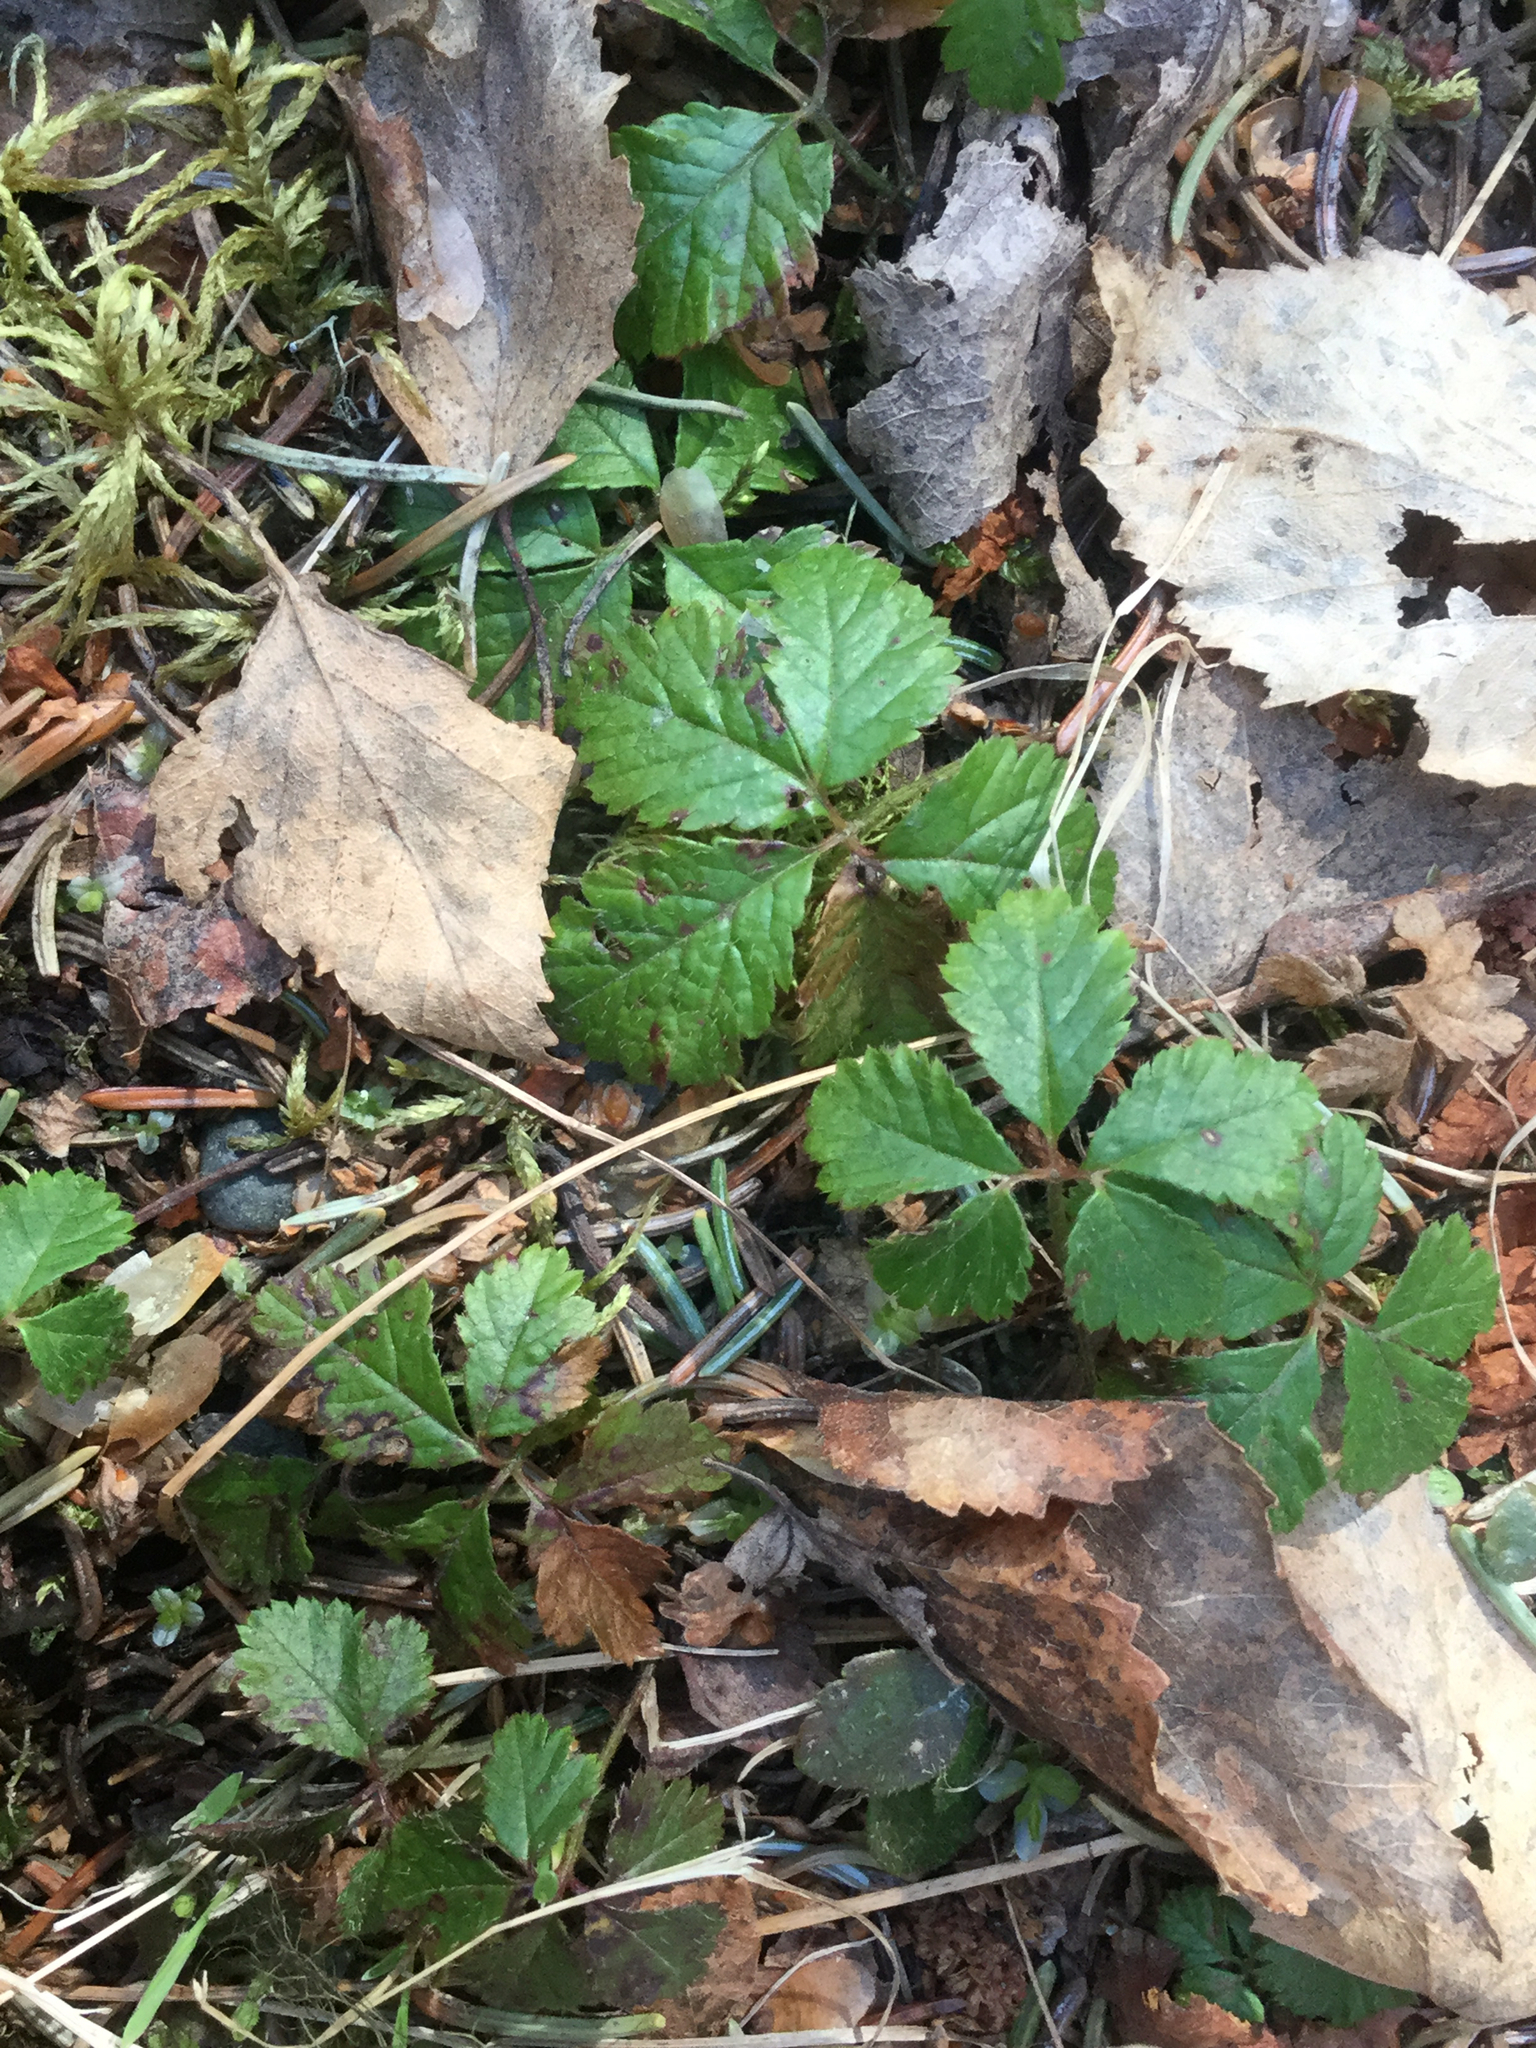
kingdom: Plantae
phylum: Tracheophyta
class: Magnoliopsida
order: Rosales
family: Rosaceae
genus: Rubus
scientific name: Rubus pedatus
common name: Creeping raspberry
